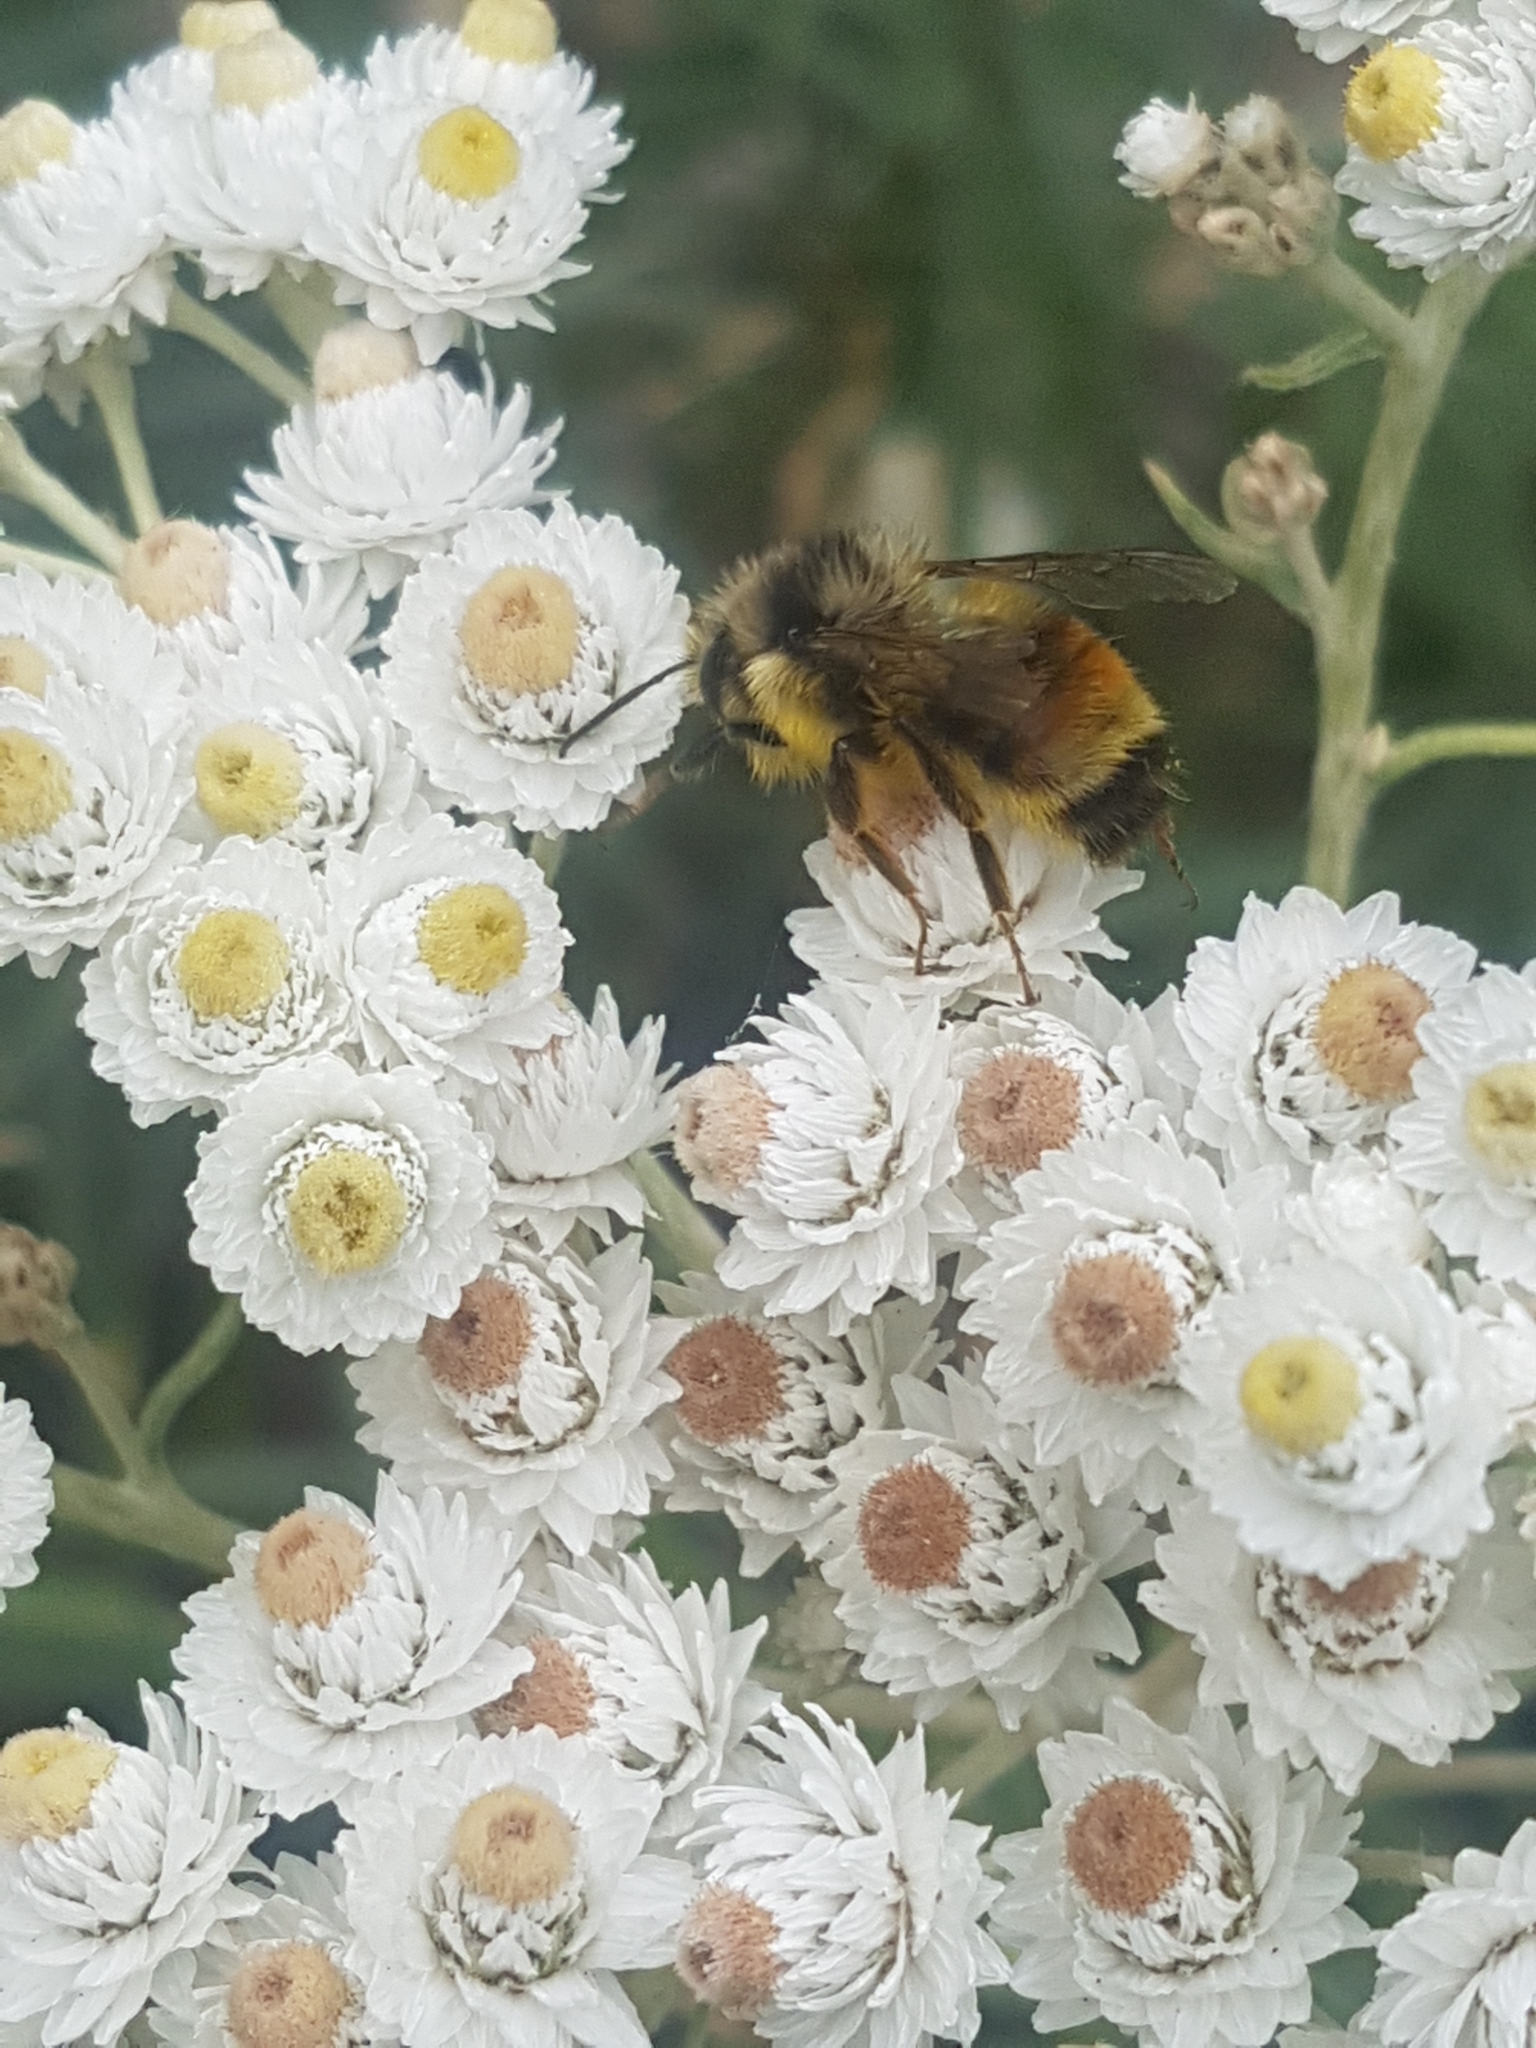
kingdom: Animalia
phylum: Arthropoda
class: Insecta
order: Hymenoptera
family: Apidae
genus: Bombus
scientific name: Bombus vancouverensis
